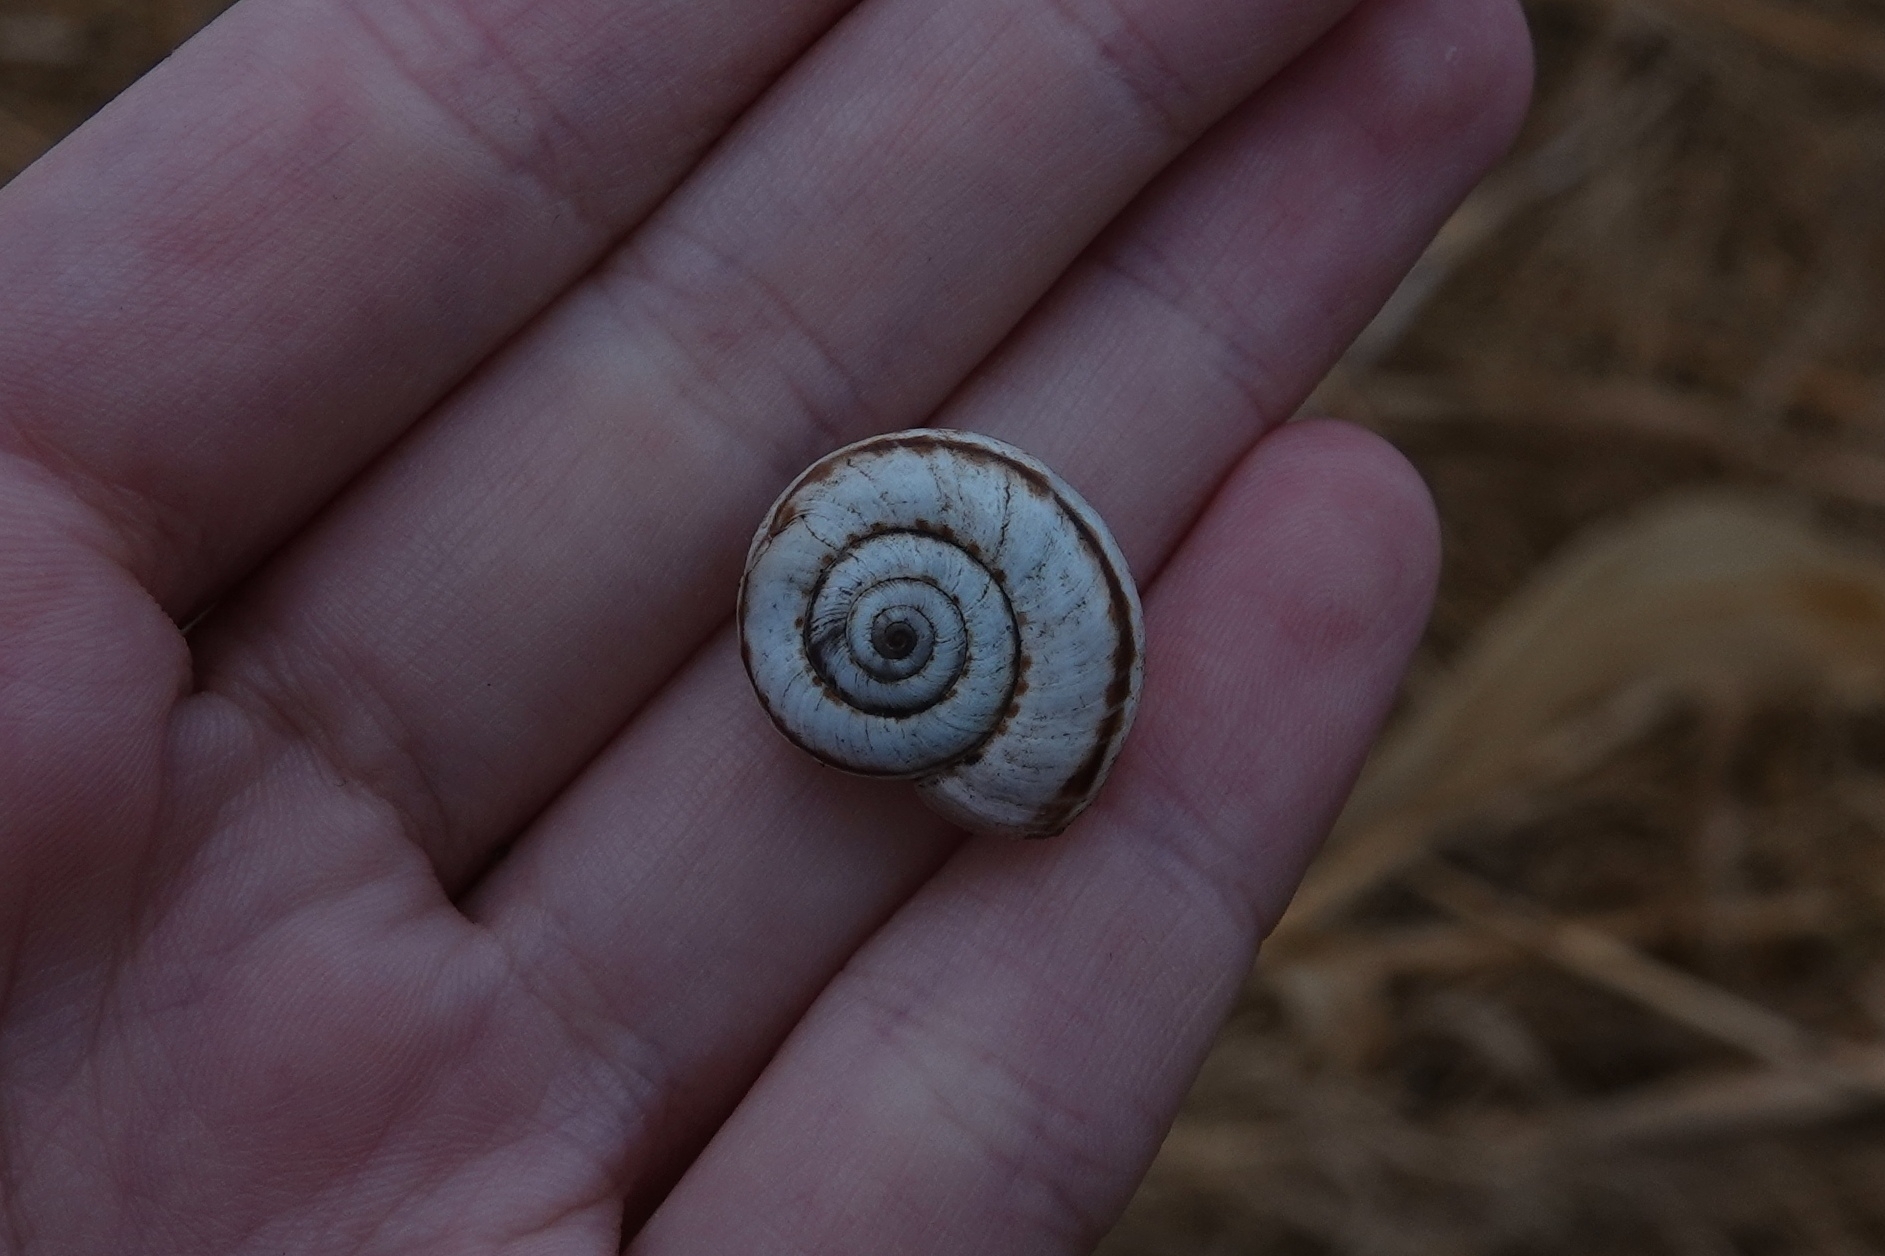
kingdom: Animalia
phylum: Mollusca
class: Gastropoda
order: Stylommatophora
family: Geomitridae
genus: Xeropicta
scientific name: Xeropicta derbentina
